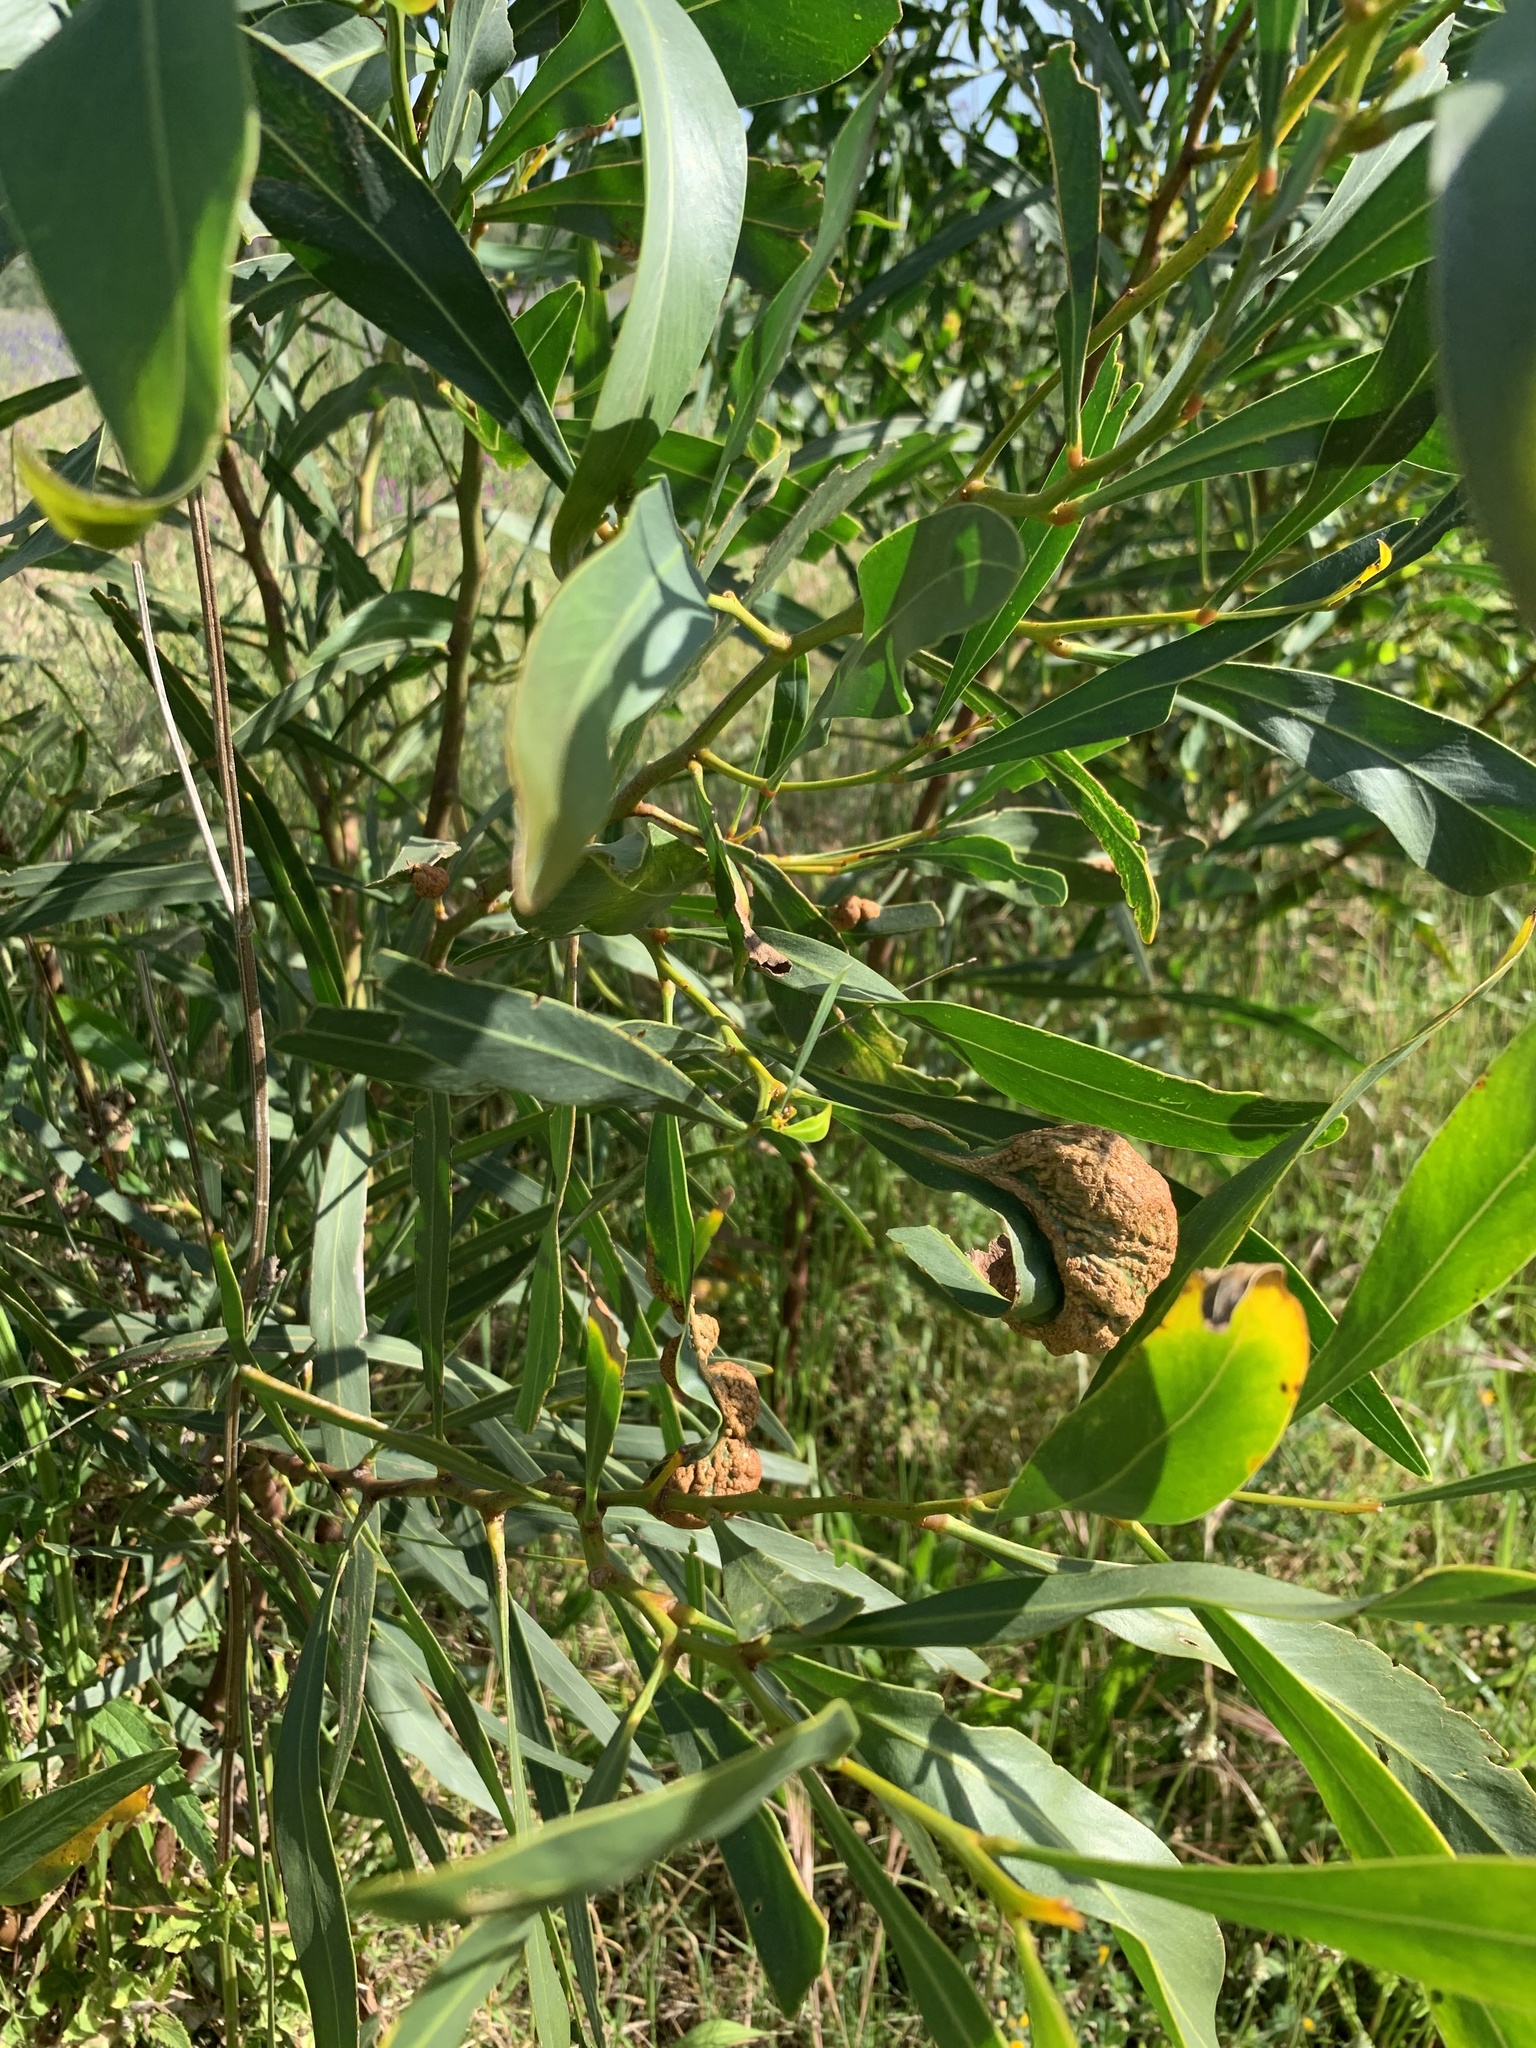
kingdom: Plantae
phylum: Tracheophyta
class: Magnoliopsida
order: Fabales
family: Fabaceae
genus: Acacia
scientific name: Acacia saligna
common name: Orange wattle
